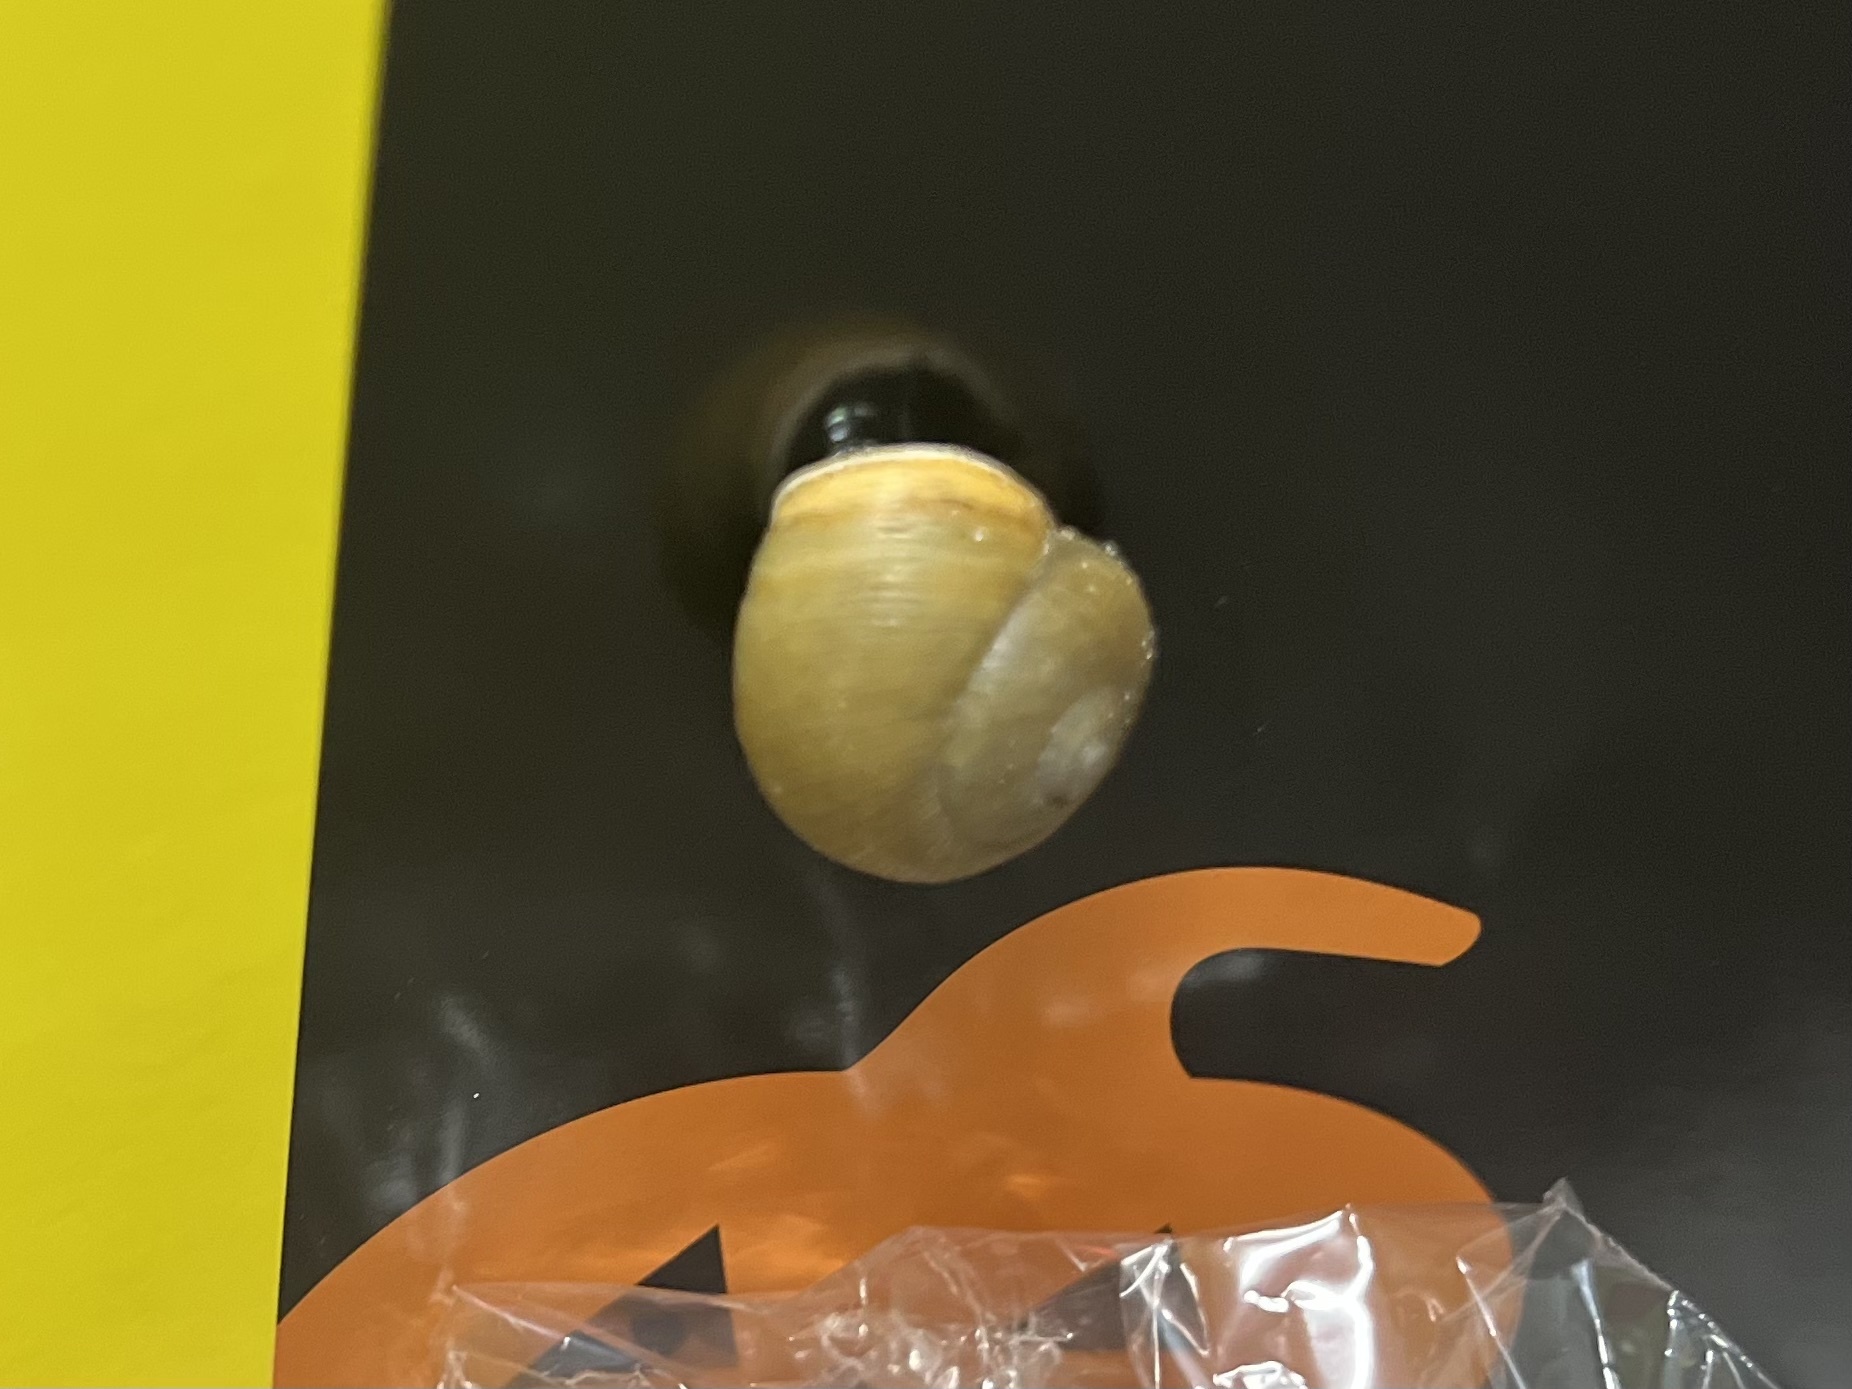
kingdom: Animalia
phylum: Mollusca
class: Gastropoda
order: Stylommatophora
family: Zachrysiidae
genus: Zachrysia
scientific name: Zachrysia provisoria
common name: Garden zachrysia
